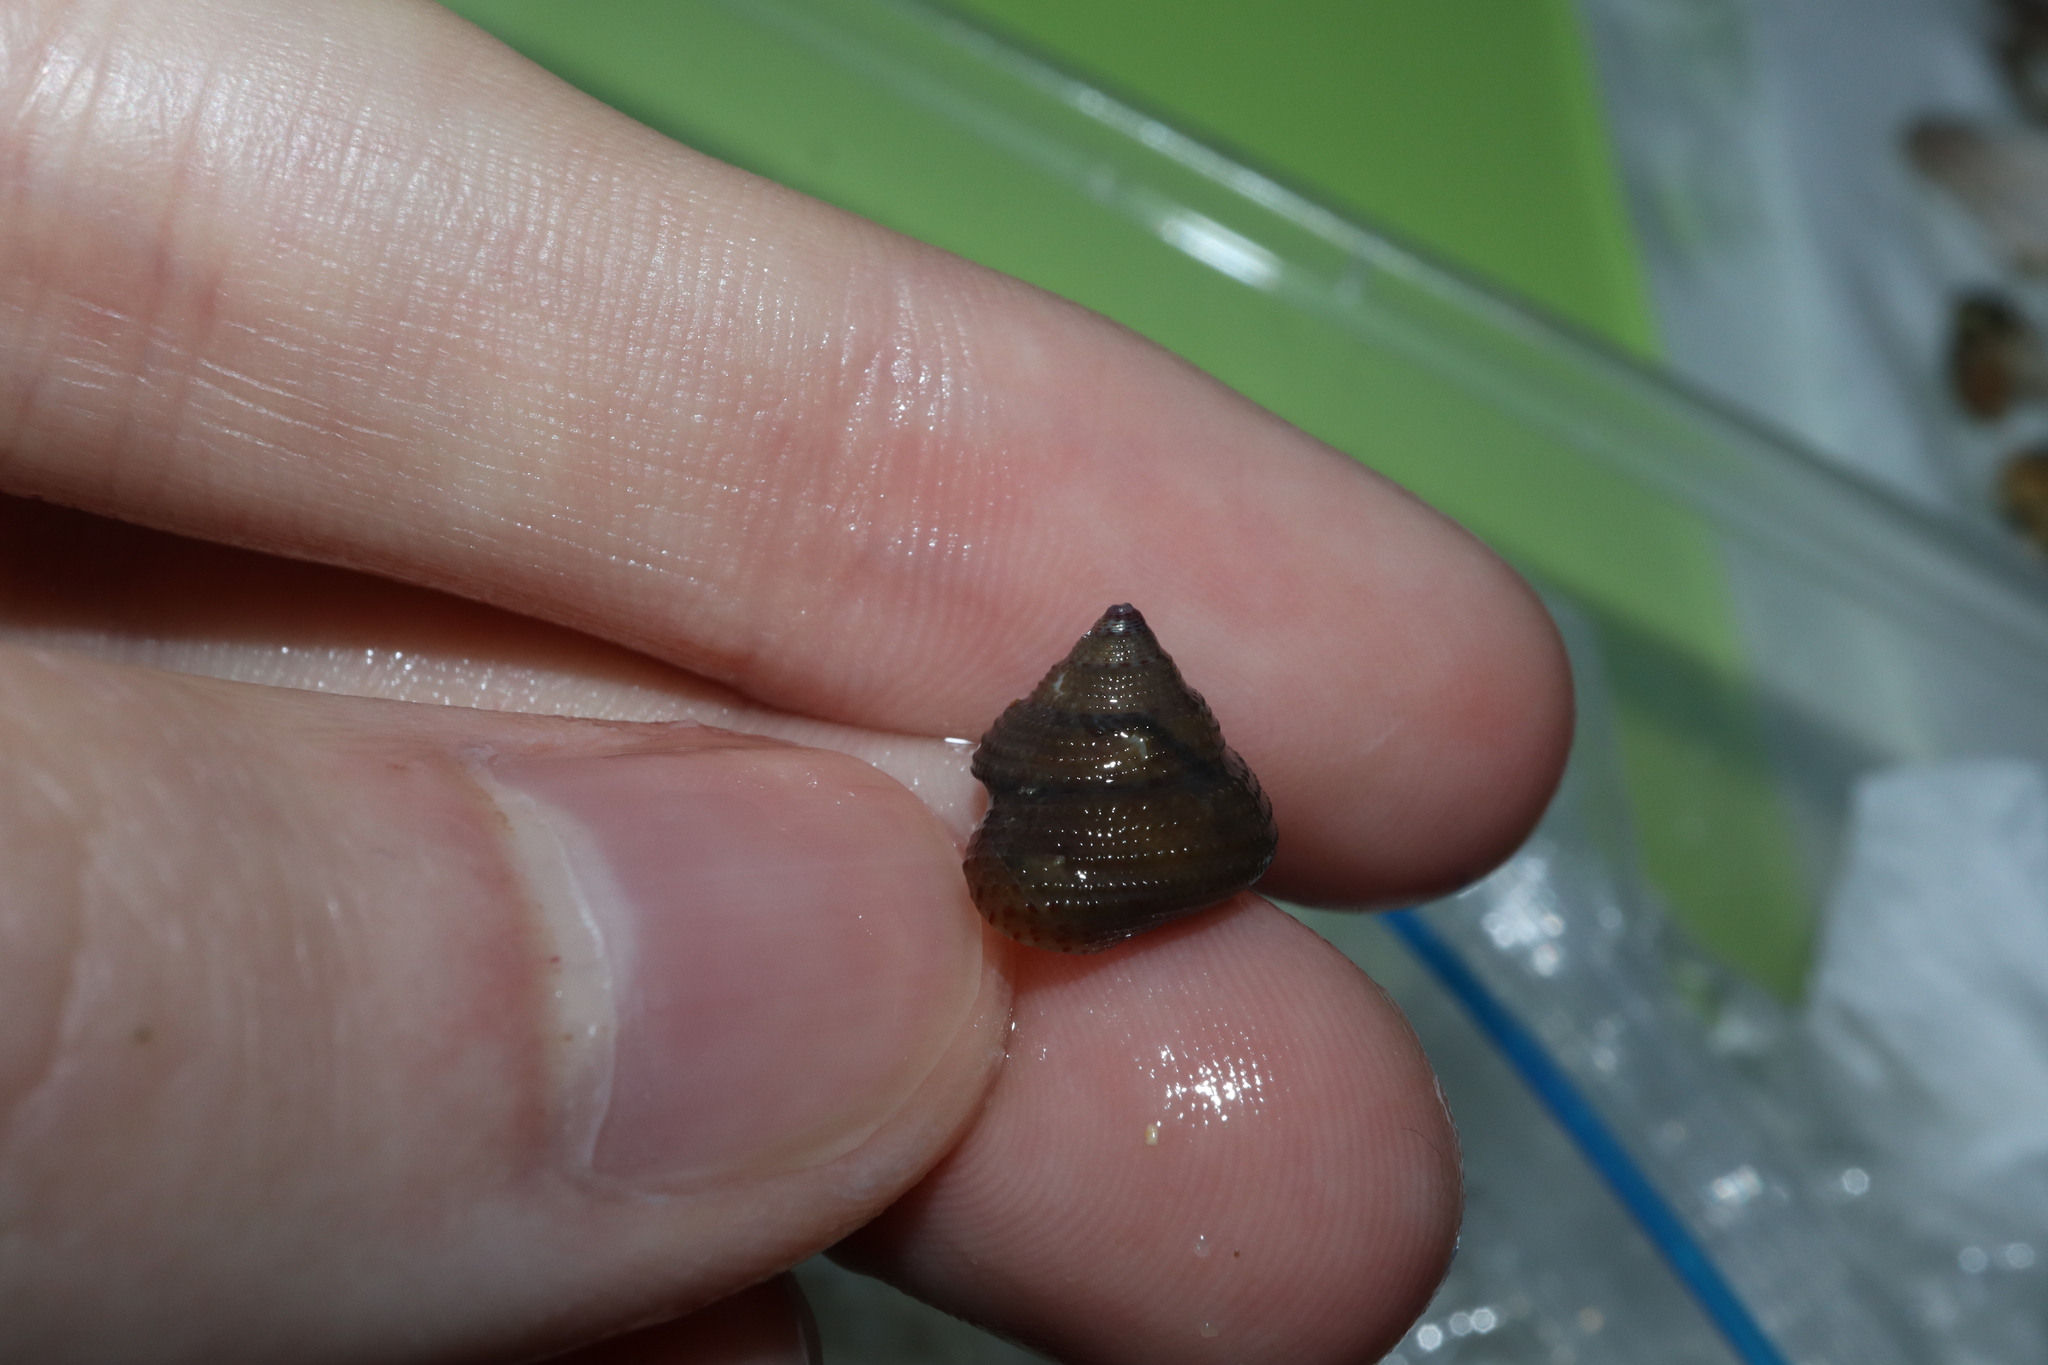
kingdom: Animalia
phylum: Mollusca
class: Gastropoda
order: Trochida
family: Trochidae
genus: Clanculus
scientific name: Clanculus clangulus
